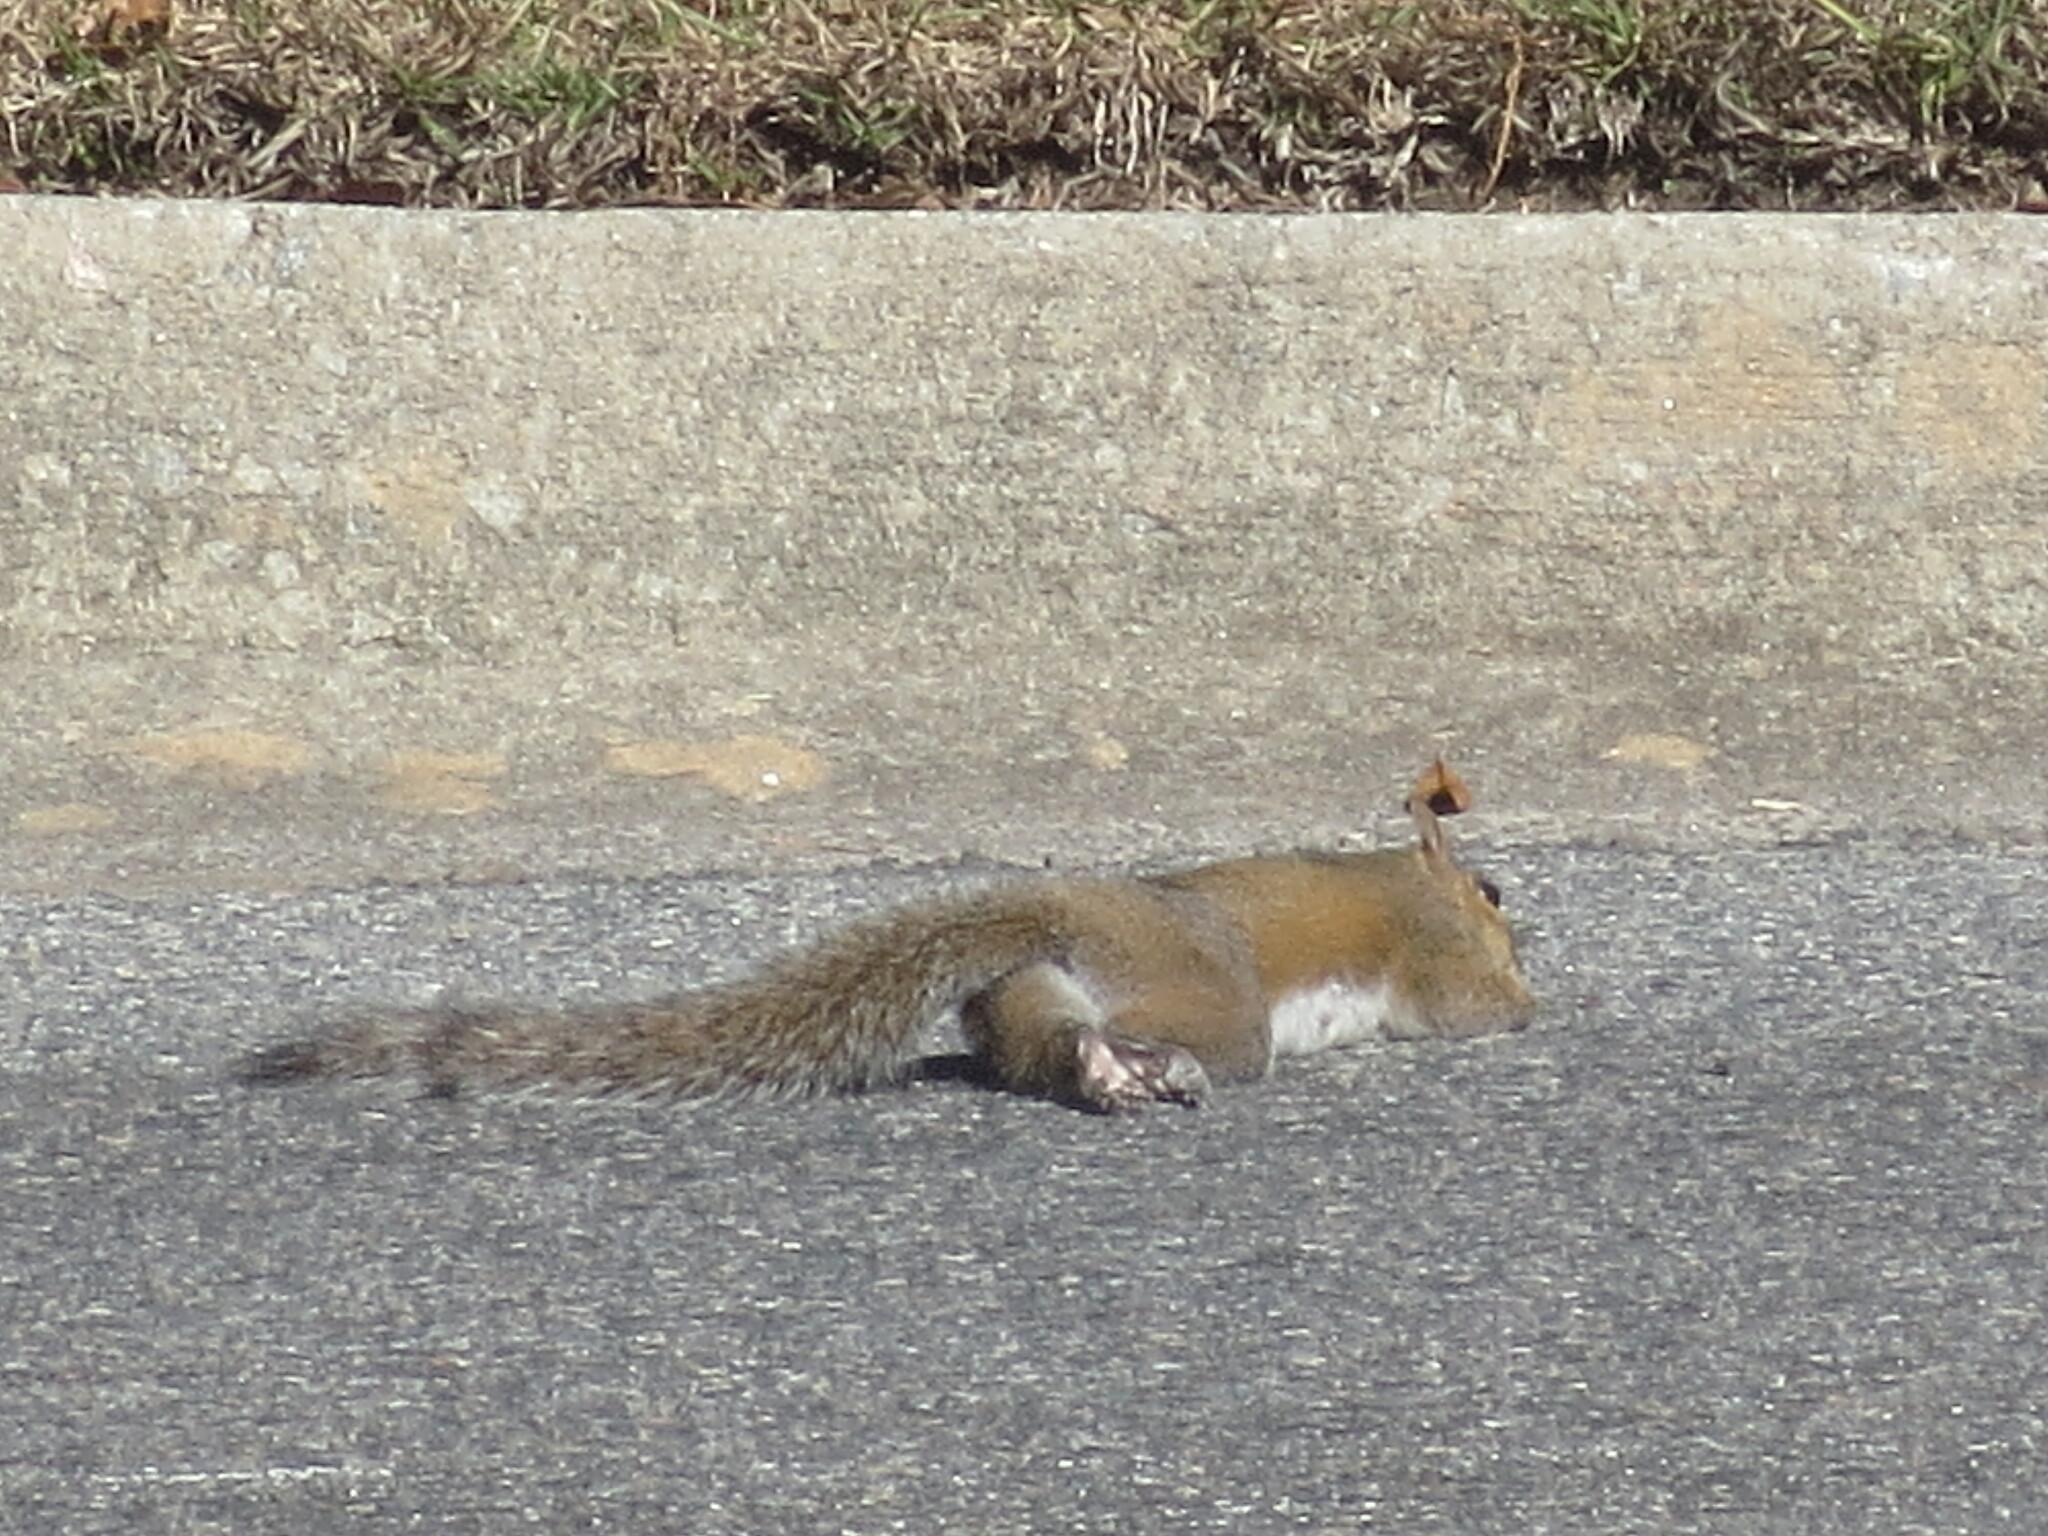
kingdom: Animalia
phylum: Chordata
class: Mammalia
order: Rodentia
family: Sciuridae
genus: Sciurus
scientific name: Sciurus carolinensis
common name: Eastern gray squirrel
